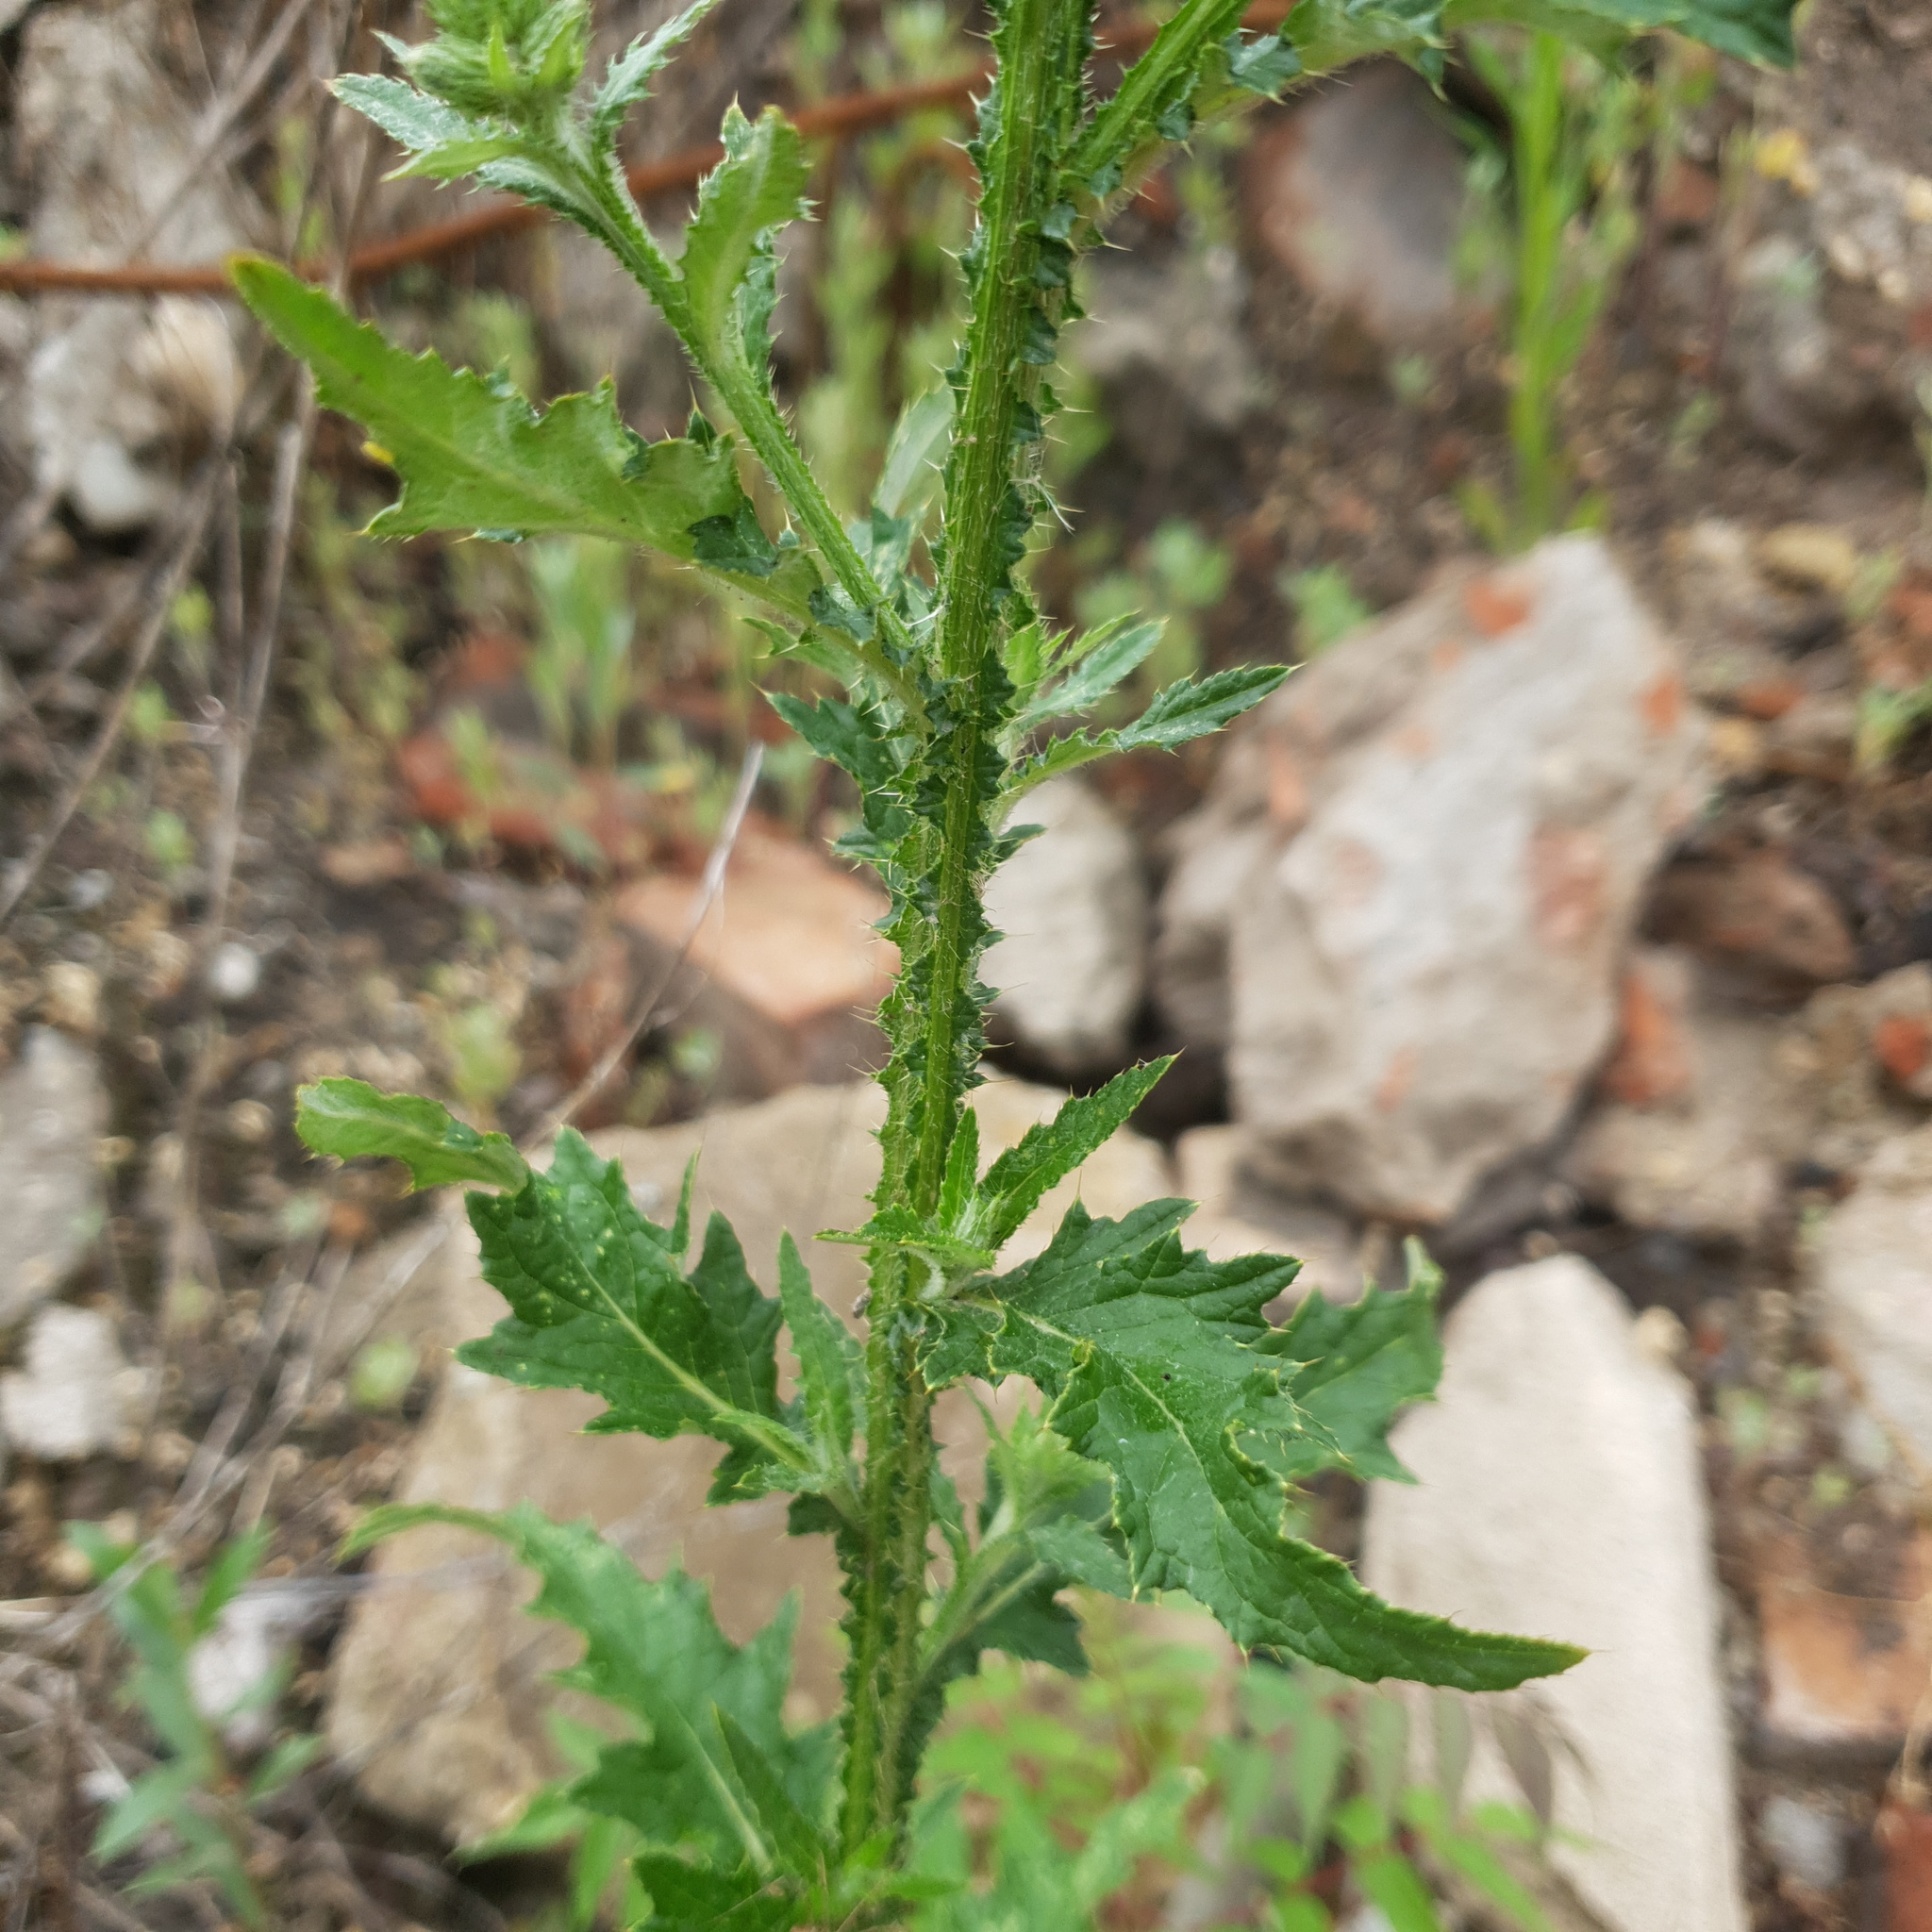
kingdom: Plantae
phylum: Tracheophyta
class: Magnoliopsida
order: Asterales
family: Asteraceae
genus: Carduus
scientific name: Carduus crispus
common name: Welted thistle
